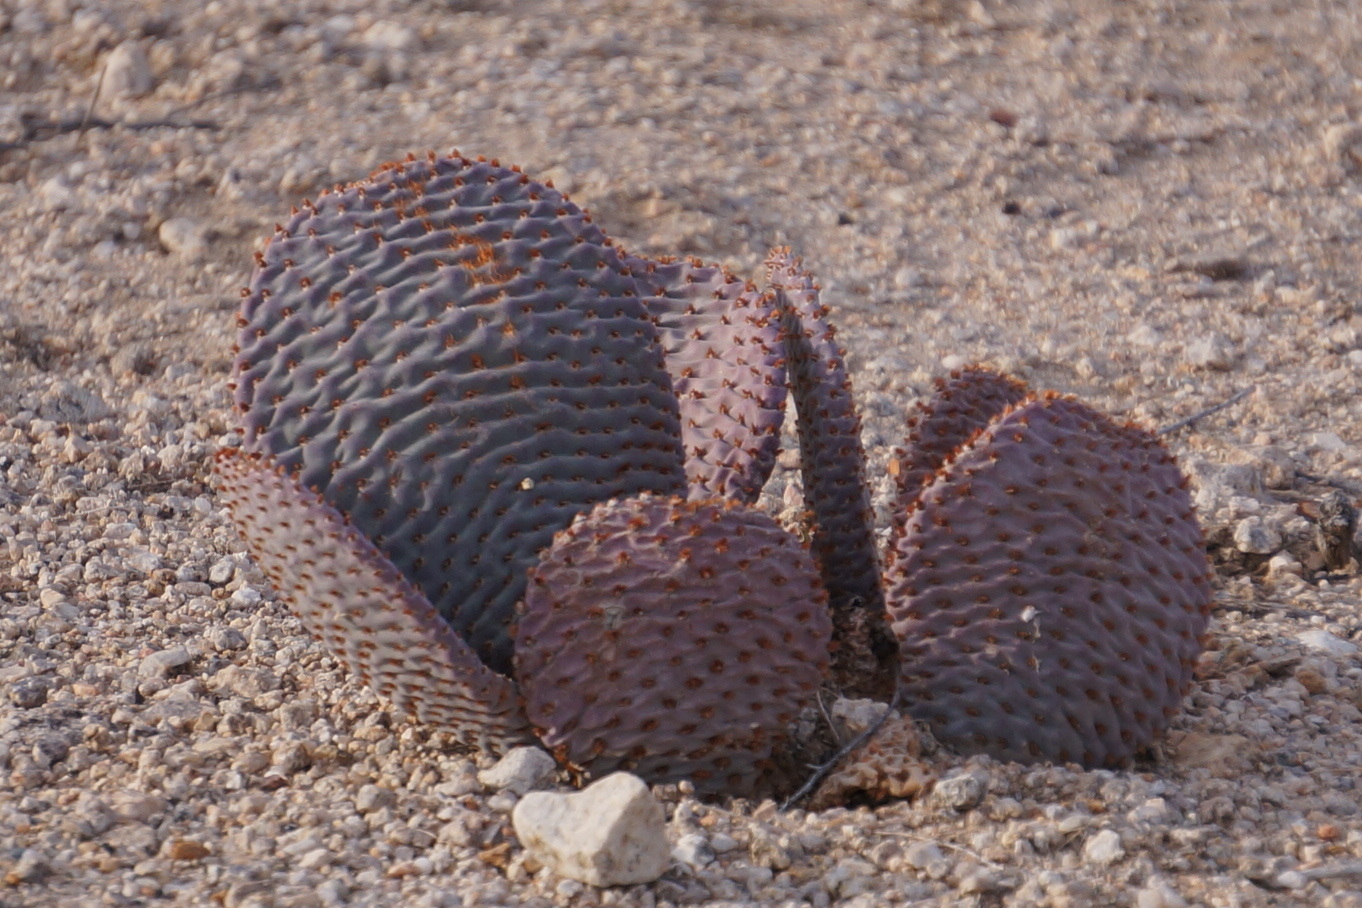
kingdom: Plantae
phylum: Tracheophyta
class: Magnoliopsida
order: Caryophyllales
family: Cactaceae
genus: Opuntia
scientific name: Opuntia basilaris
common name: Beavertail prickly-pear
